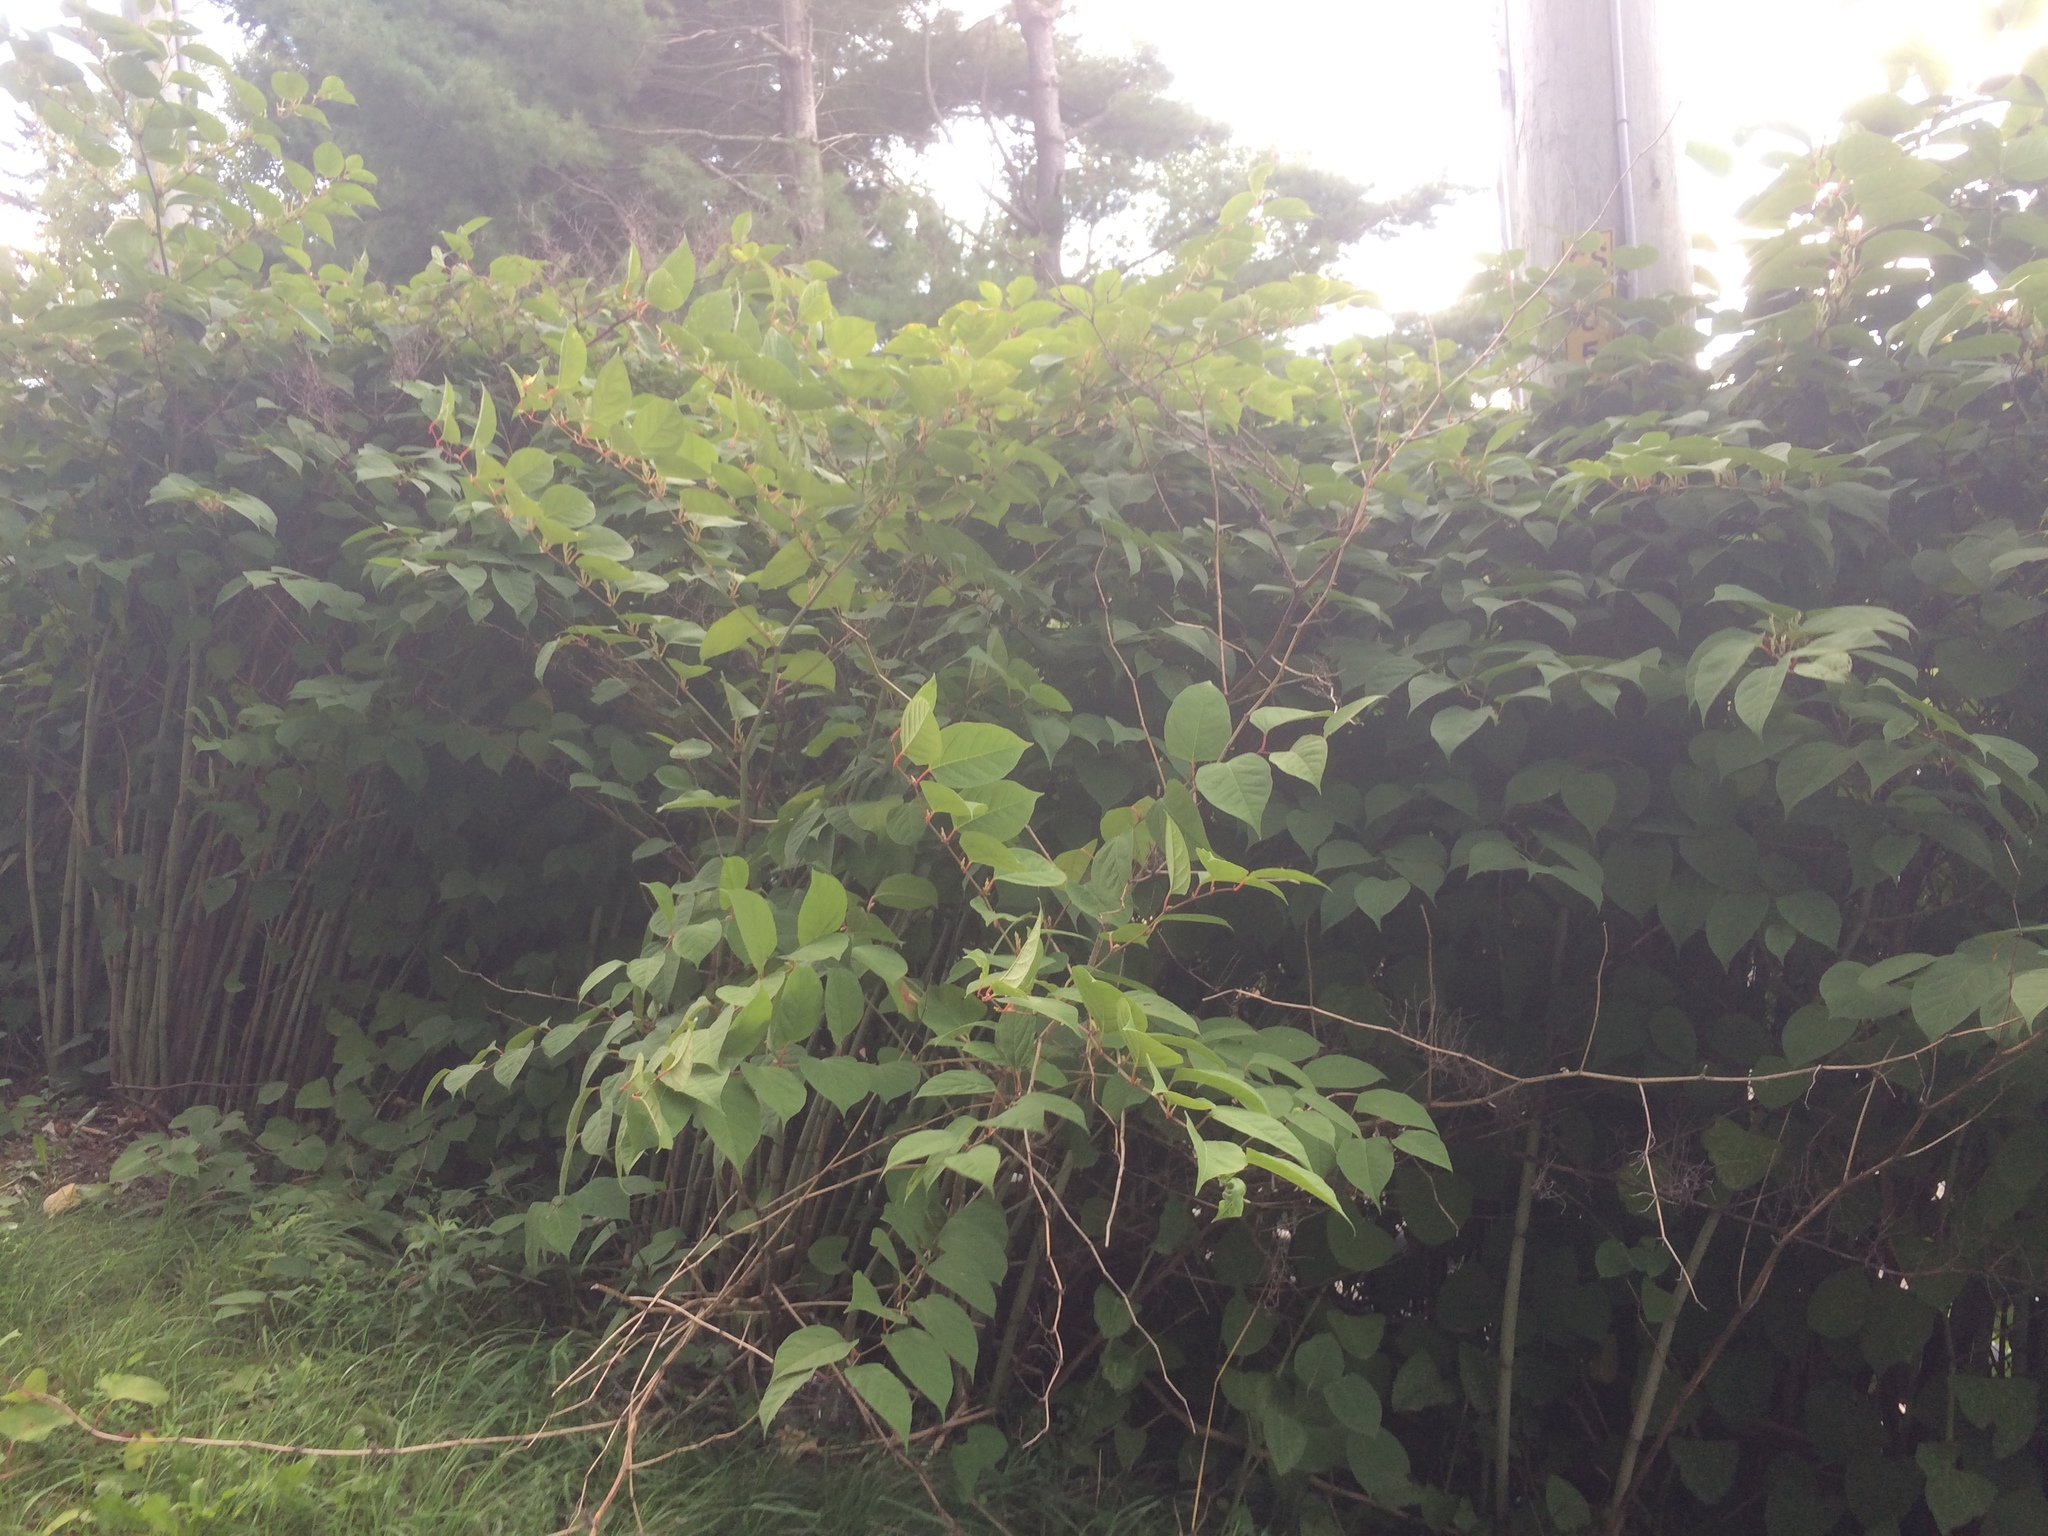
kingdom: Plantae
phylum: Tracheophyta
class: Magnoliopsida
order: Caryophyllales
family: Polygonaceae
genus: Reynoutria
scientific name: Reynoutria japonica
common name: Japanese knotweed
